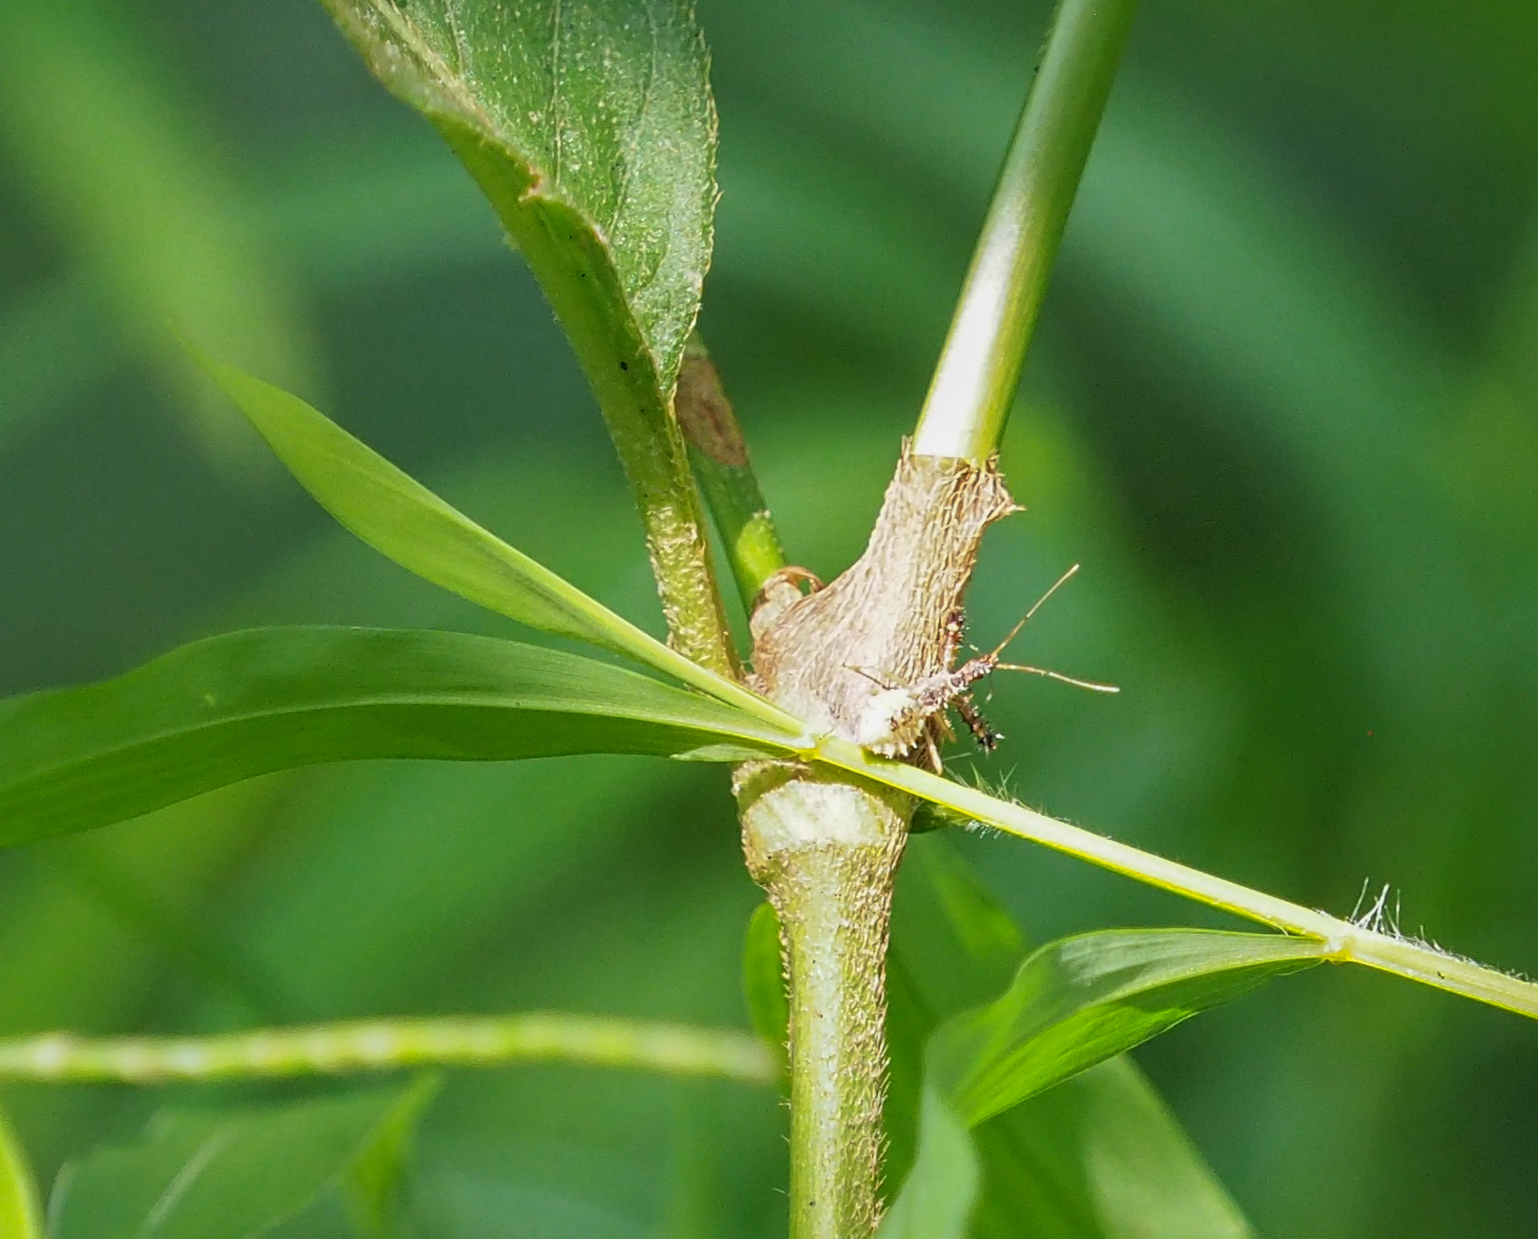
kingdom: Plantae
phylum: Tracheophyta
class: Magnoliopsida
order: Caryophyllales
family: Polygonaceae
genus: Persicaria
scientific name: Persicaria virginiana
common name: Jumpseed
